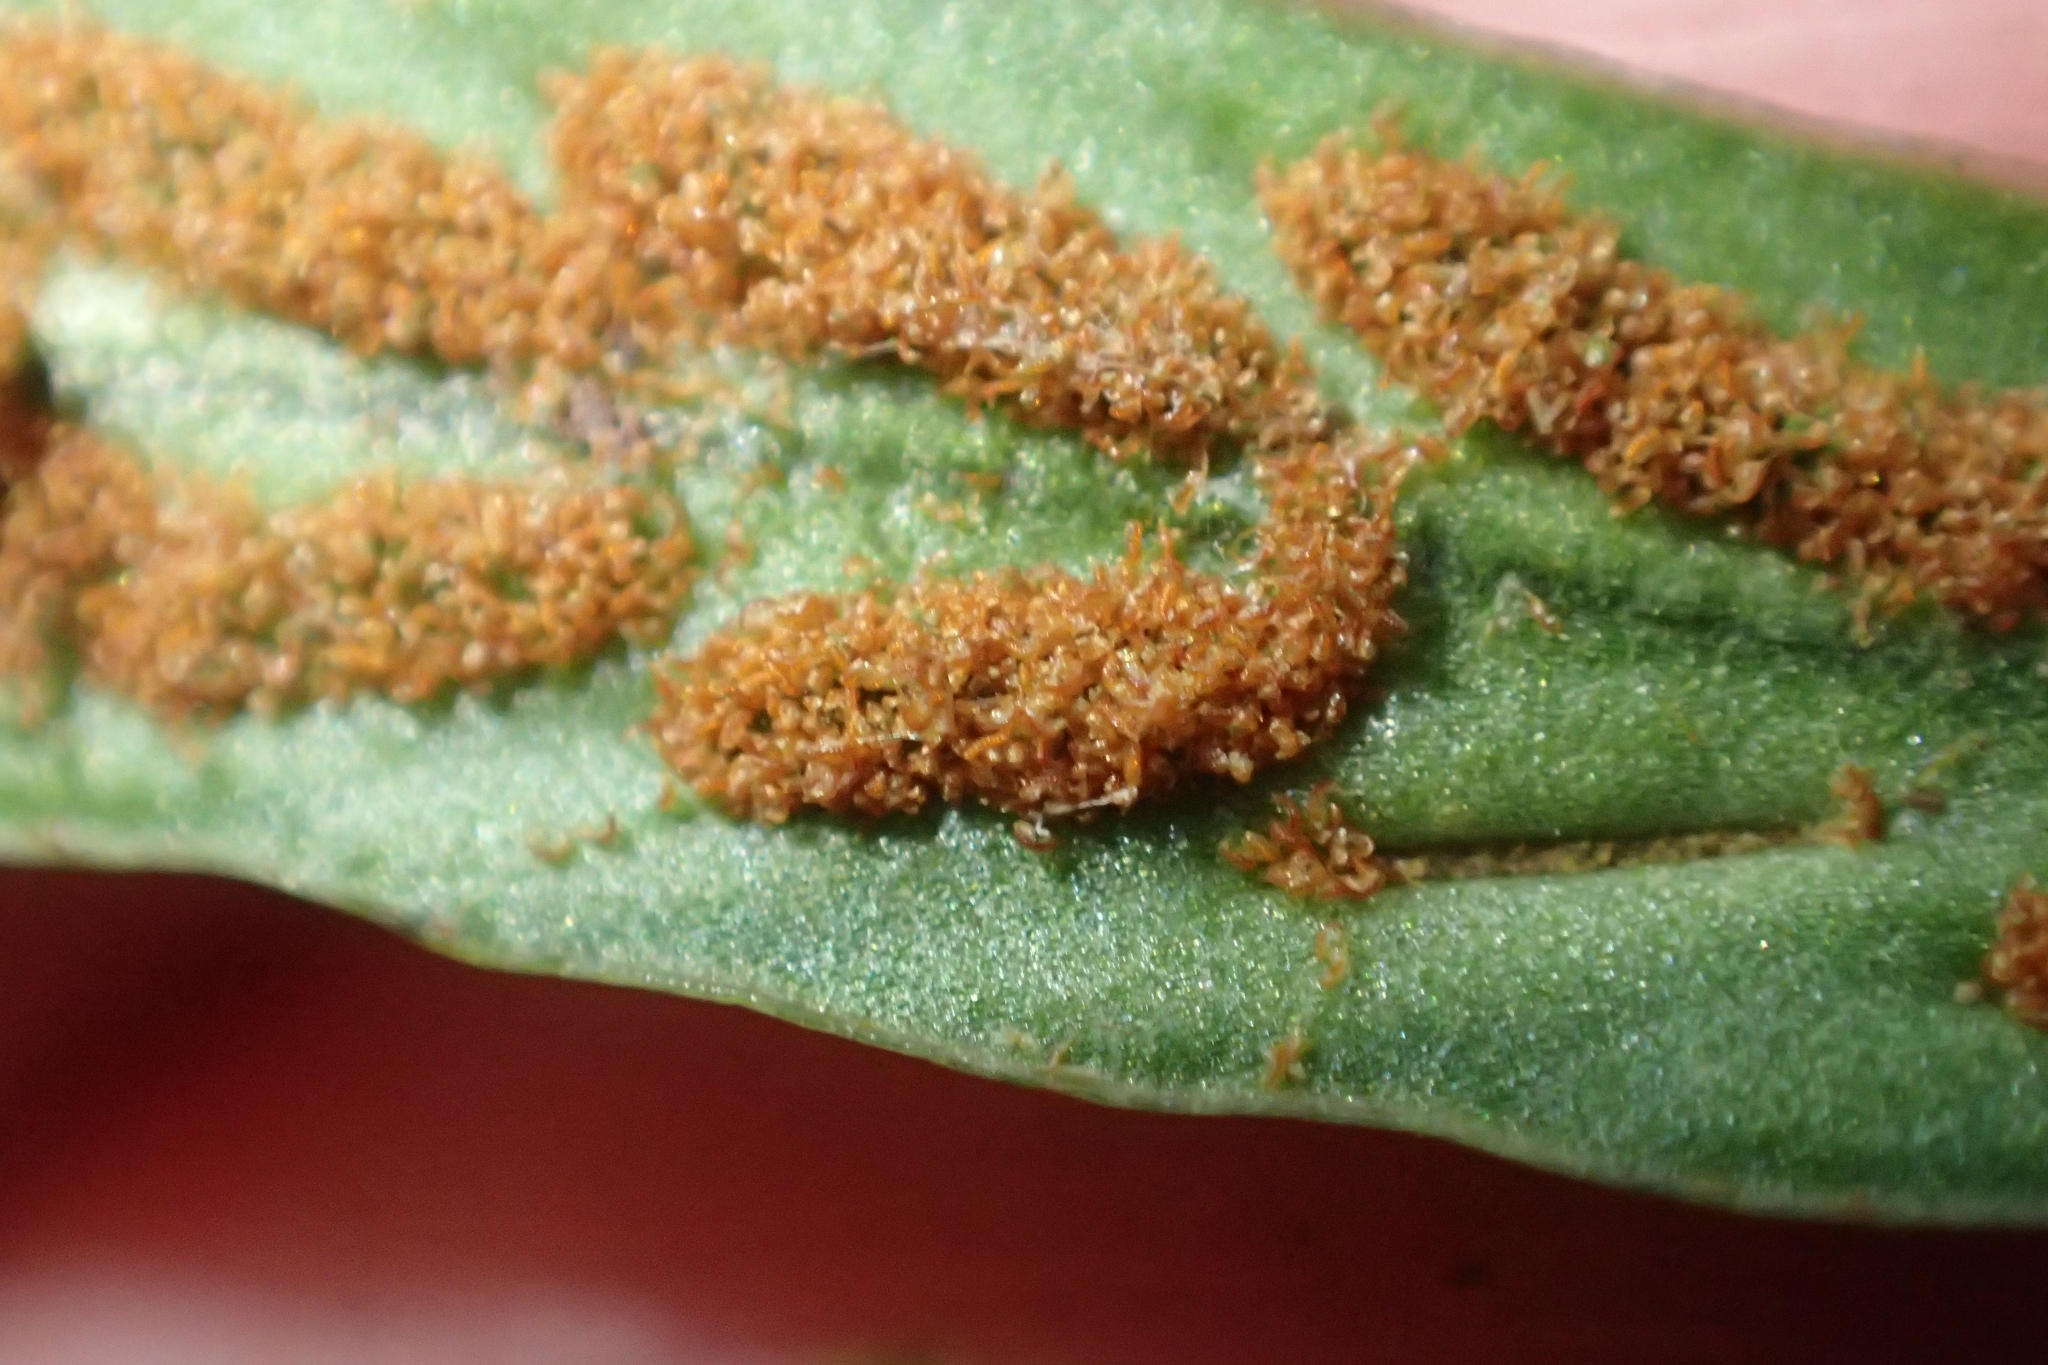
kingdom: Plantae
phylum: Tracheophyta
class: Polypodiopsida
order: Polypodiales
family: Polypodiaceae
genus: Notogrammitis
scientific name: Notogrammitis billardierei
